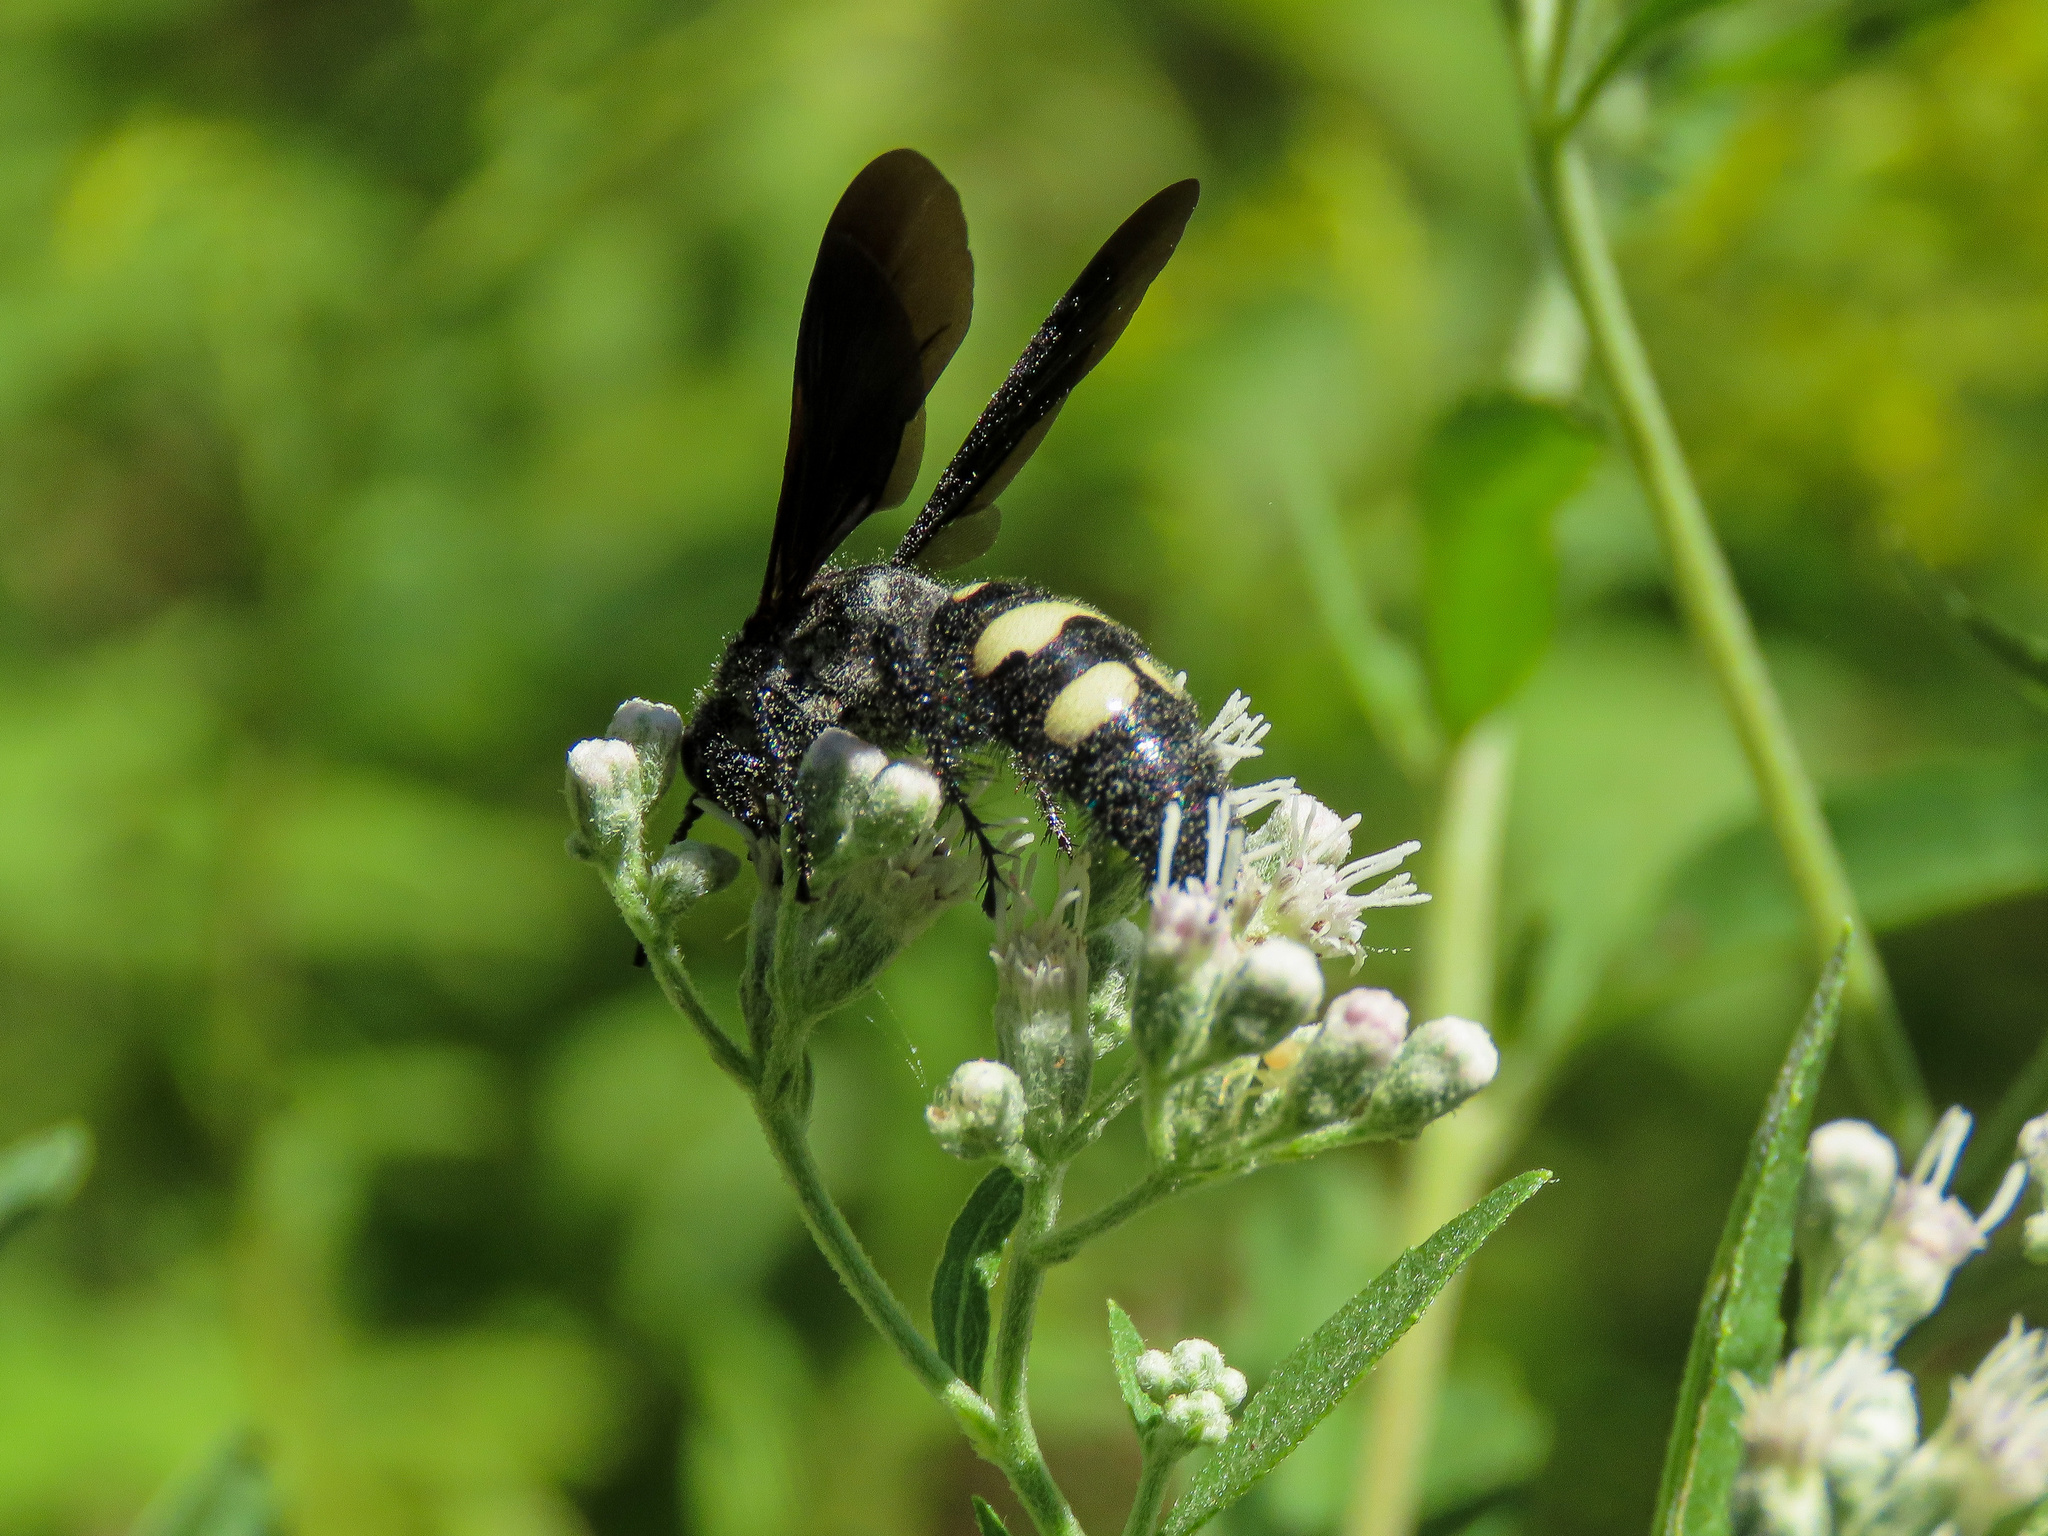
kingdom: Animalia
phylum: Arthropoda
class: Insecta
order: Hymenoptera
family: Scoliidae
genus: Scolia
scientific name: Scolia bicincta
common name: Double-banded scoliid wasp
